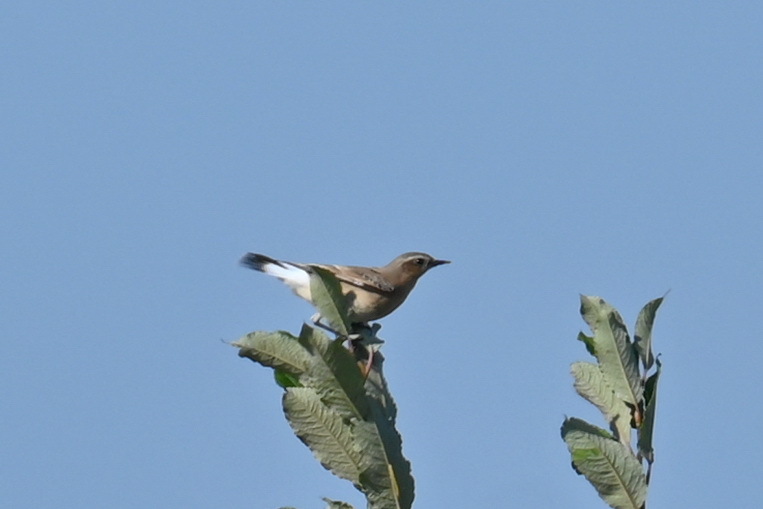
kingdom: Animalia
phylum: Chordata
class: Aves
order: Passeriformes
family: Muscicapidae
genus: Oenanthe
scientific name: Oenanthe oenanthe
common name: Northern wheatear
